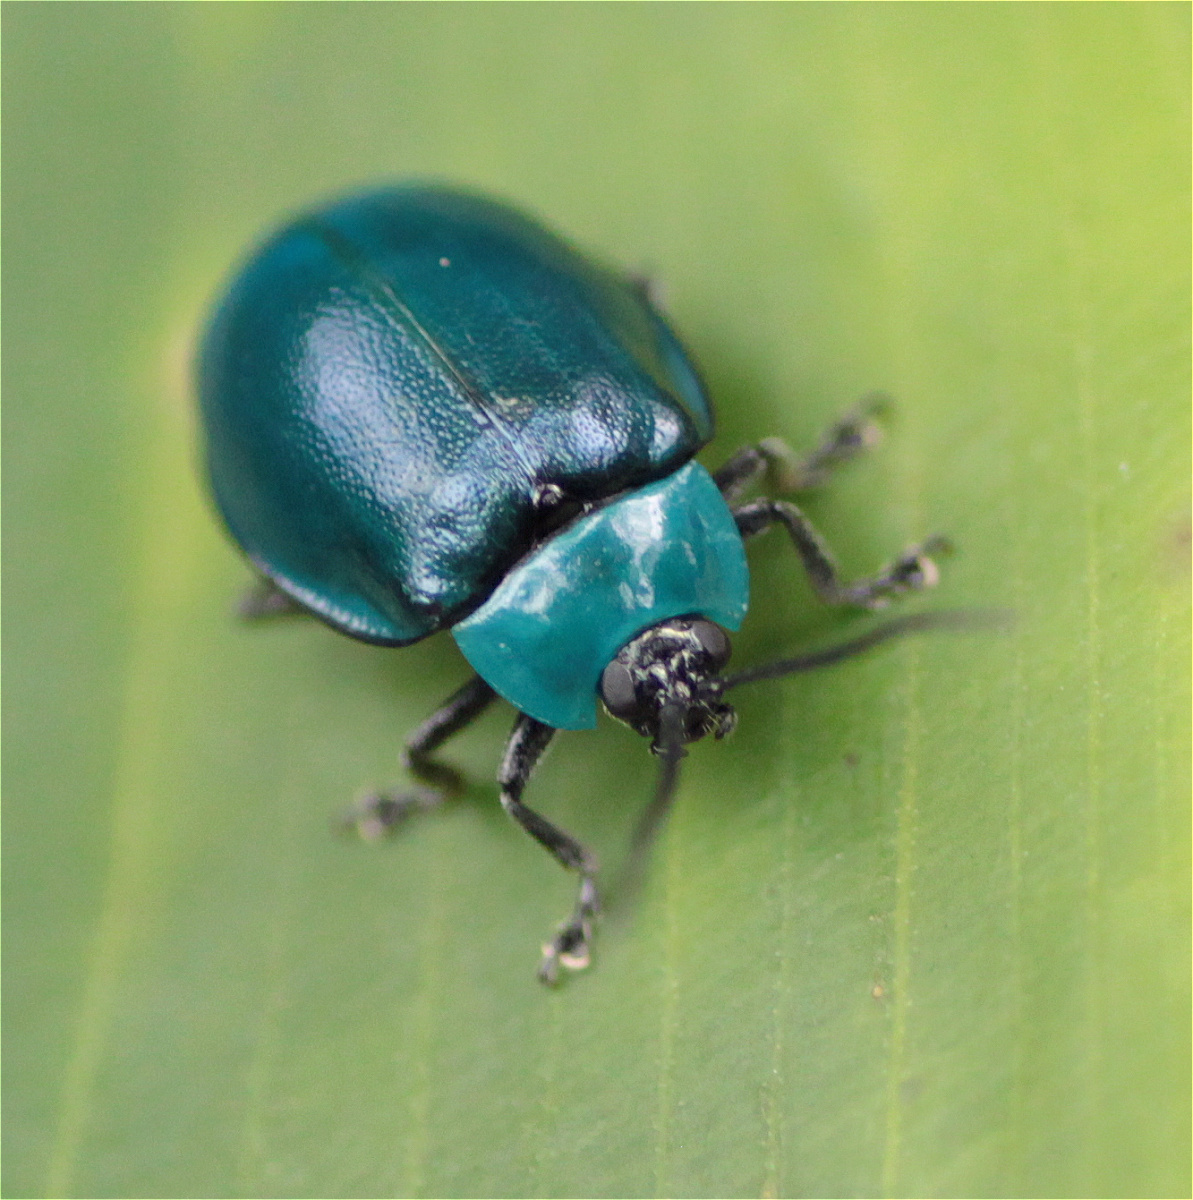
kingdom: Animalia
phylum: Arthropoda
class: Insecta
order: Coleoptera
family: Chrysomelidae
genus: Aspicela
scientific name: Aspicela
